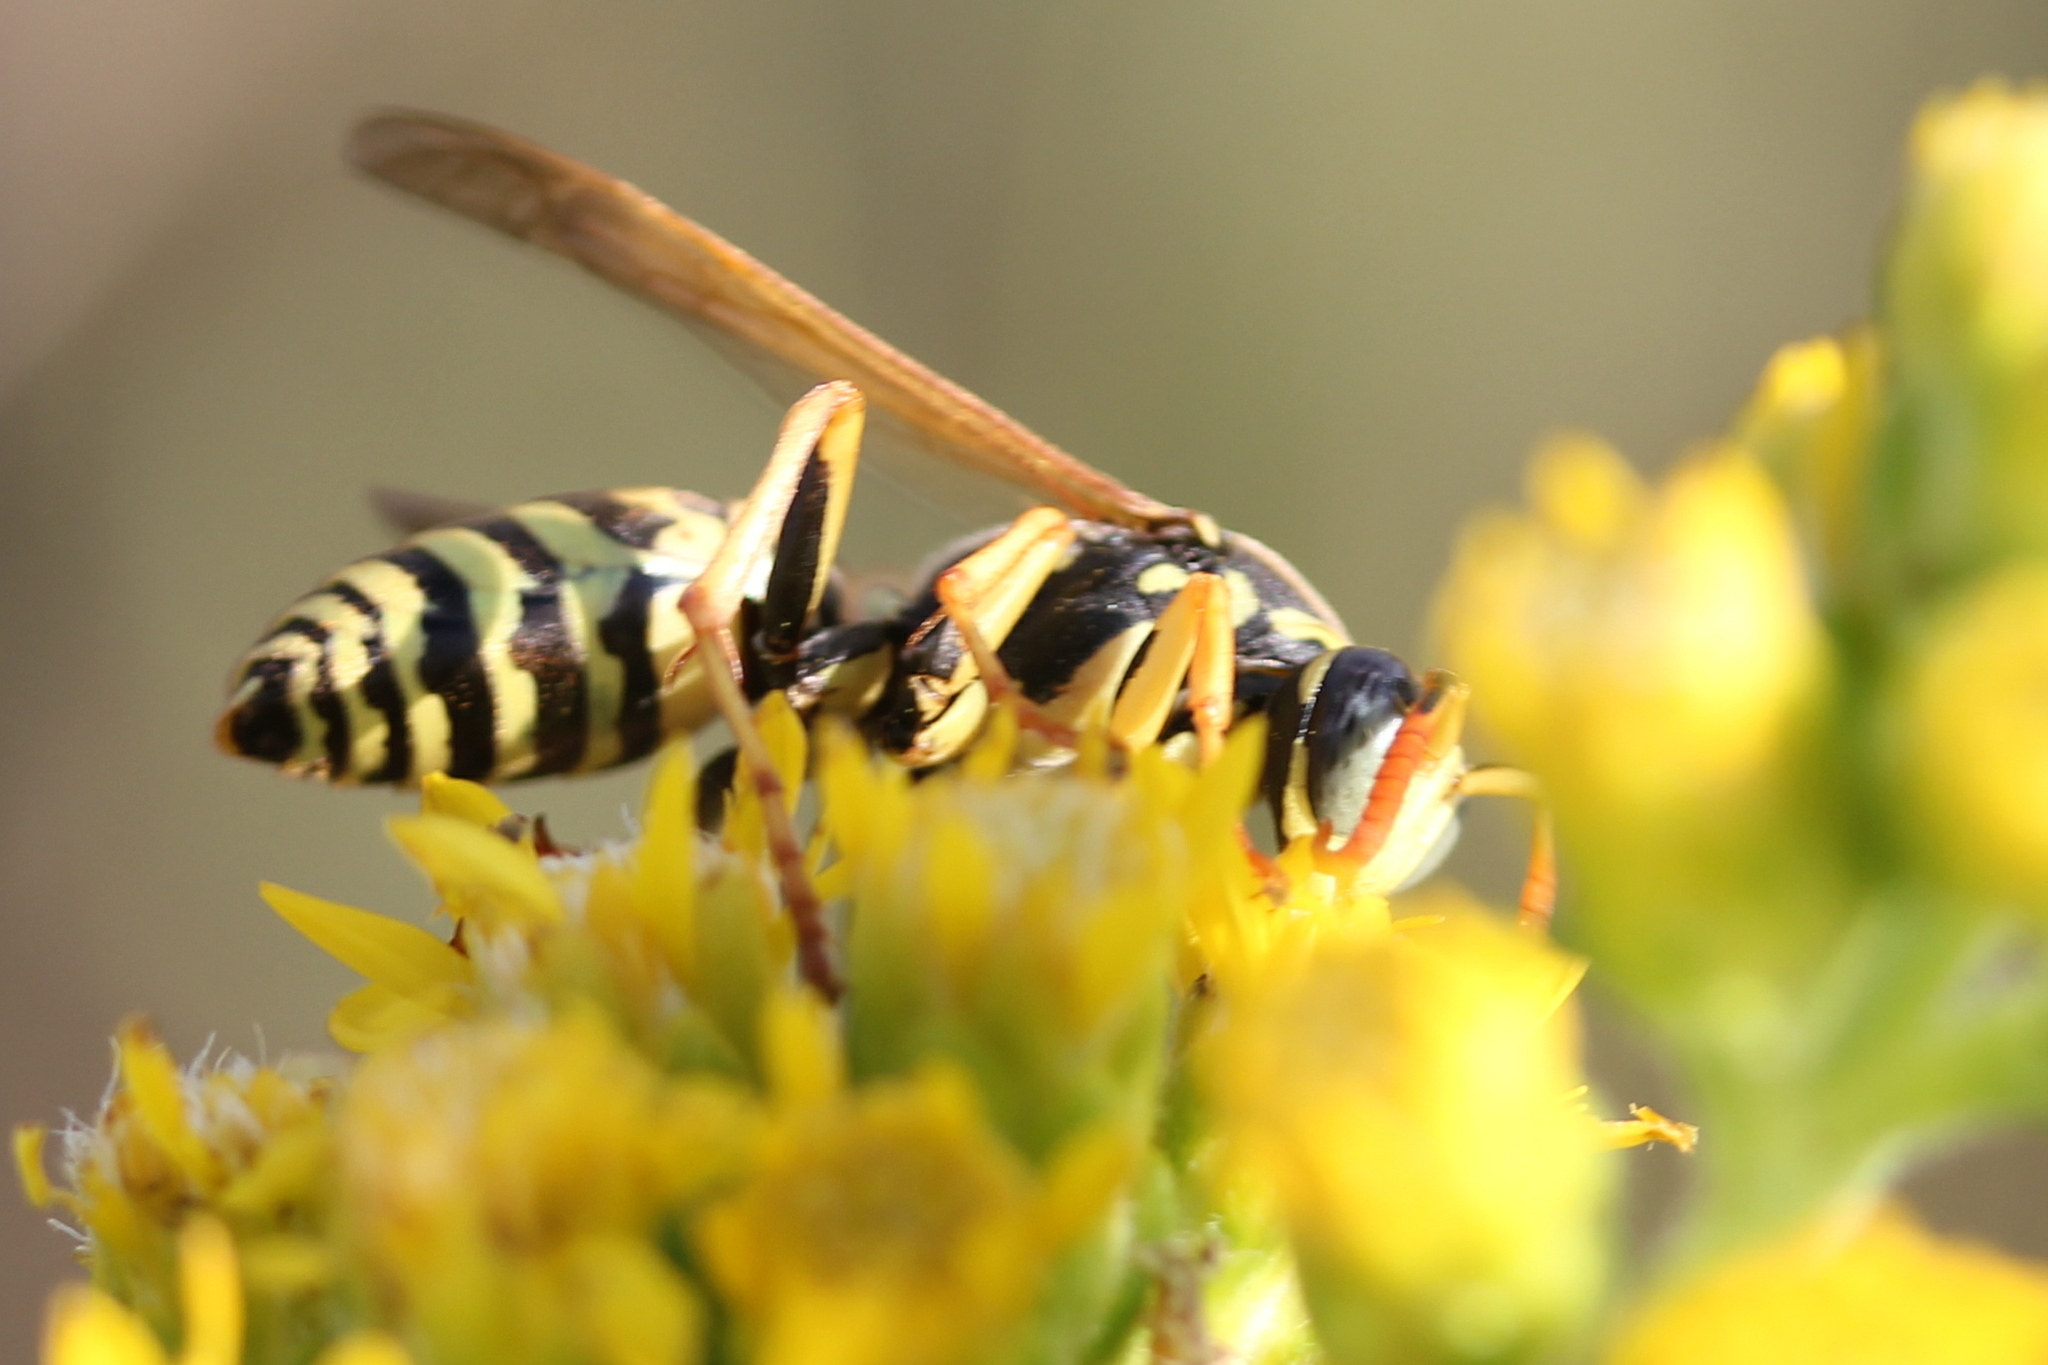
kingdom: Animalia
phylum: Arthropoda
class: Insecta
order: Hymenoptera
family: Eumenidae
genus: Polistes
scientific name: Polistes dominula
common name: Paper wasp
